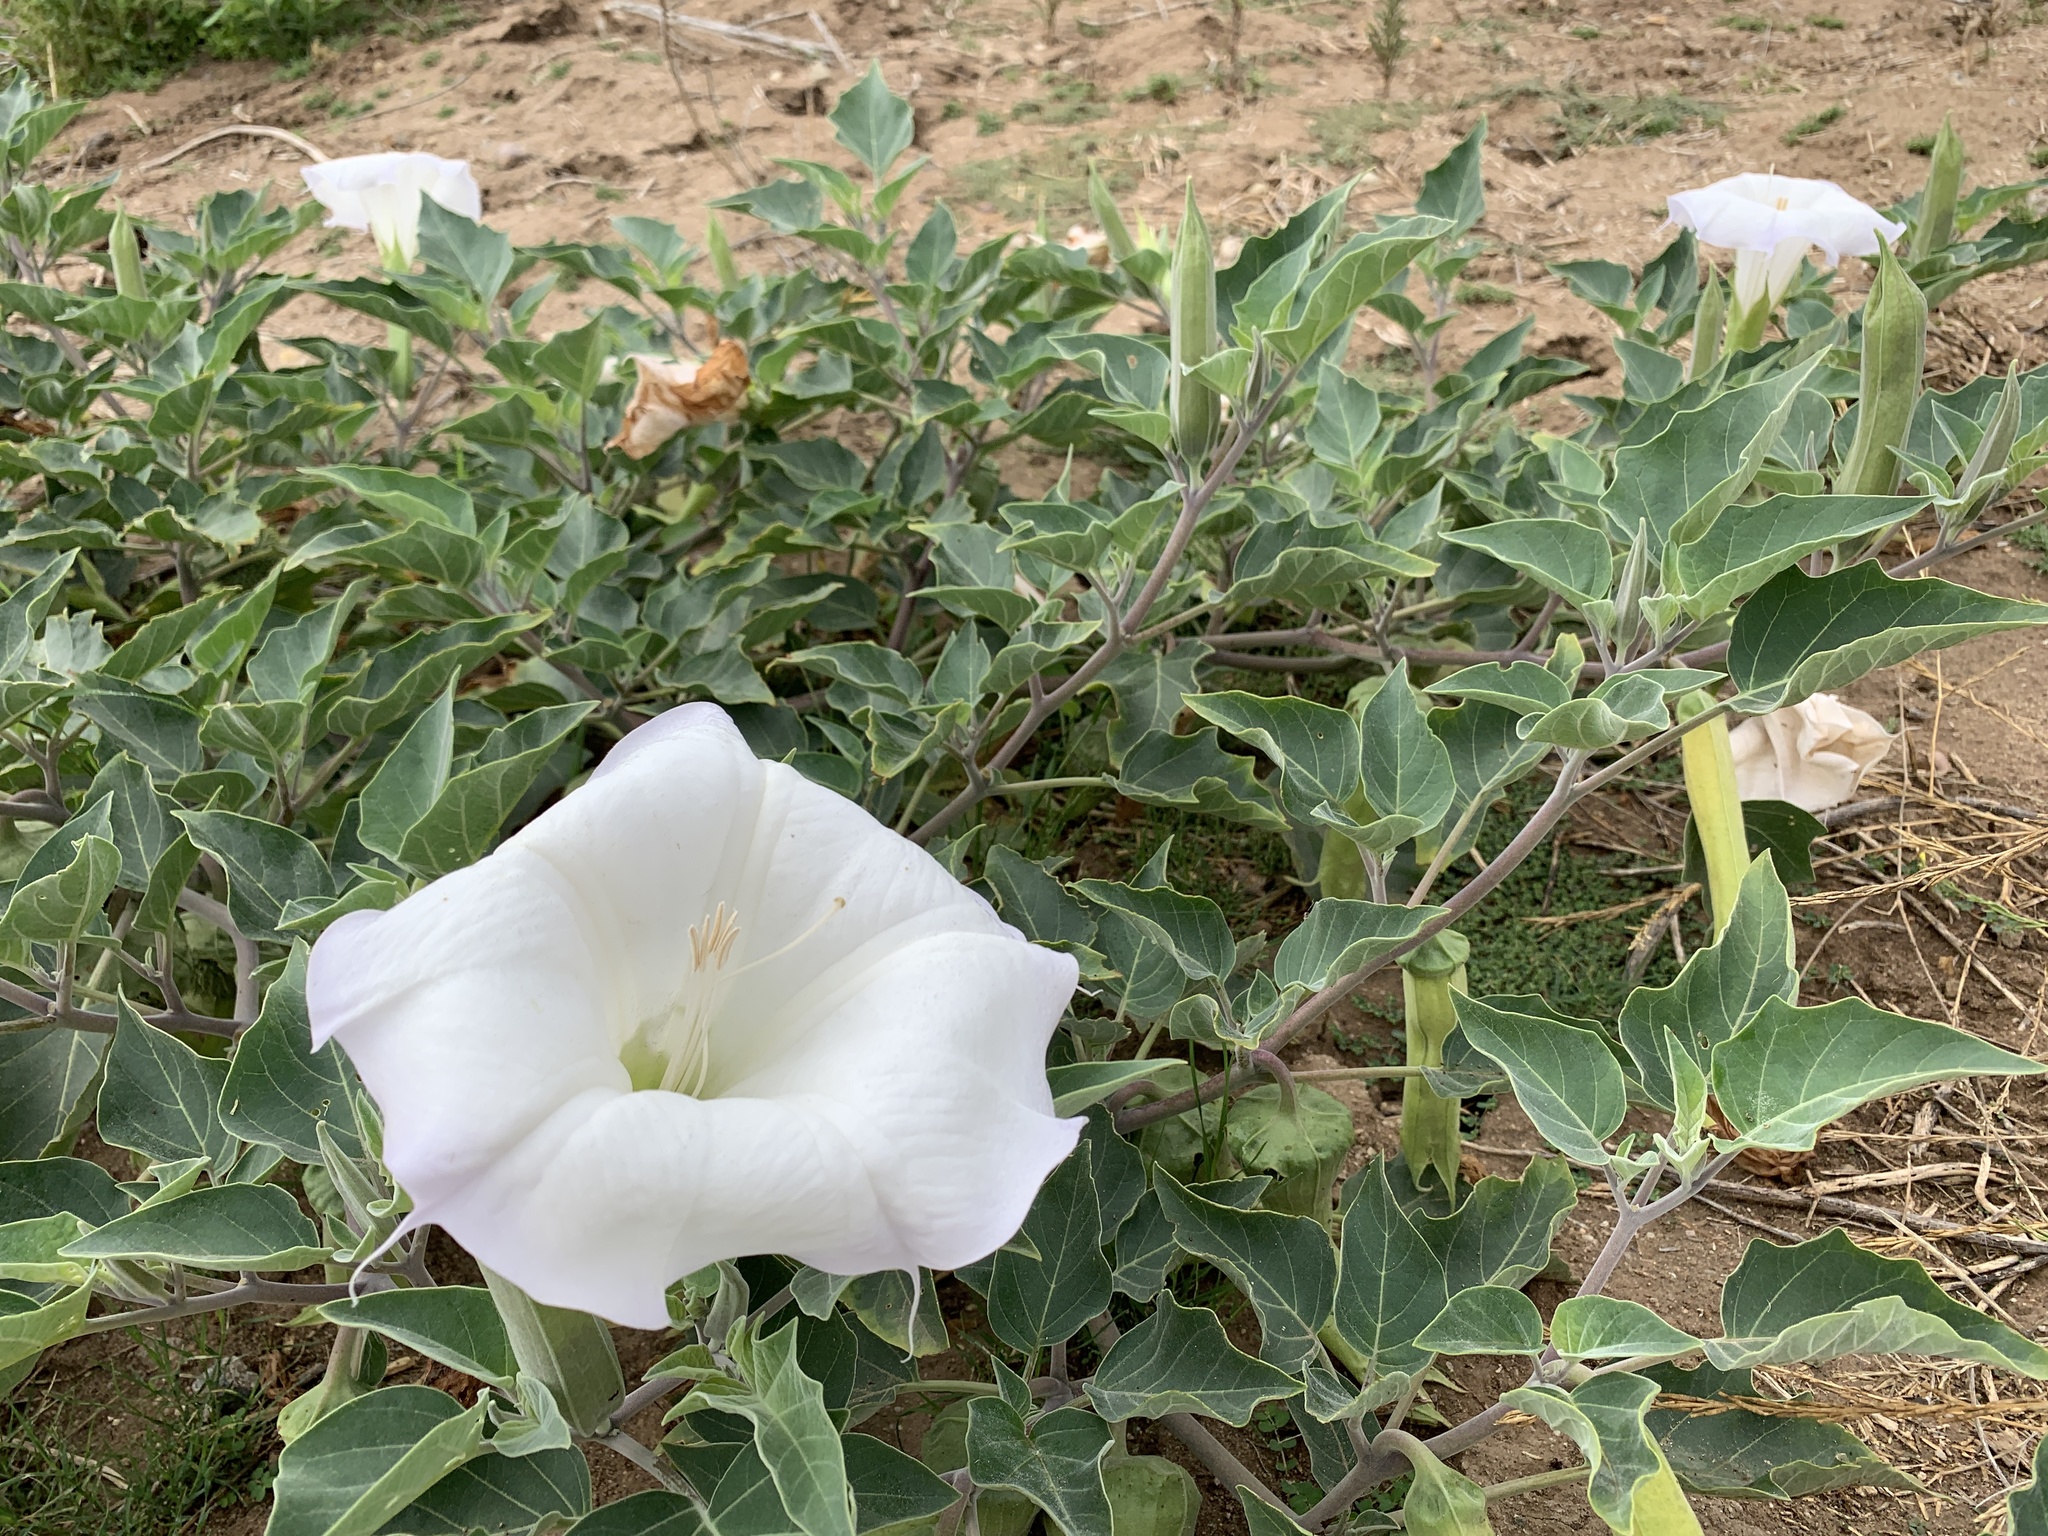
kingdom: Plantae
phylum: Tracheophyta
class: Magnoliopsida
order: Solanales
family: Solanaceae
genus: Datura
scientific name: Datura wrightii
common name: Sacred thorn-apple
